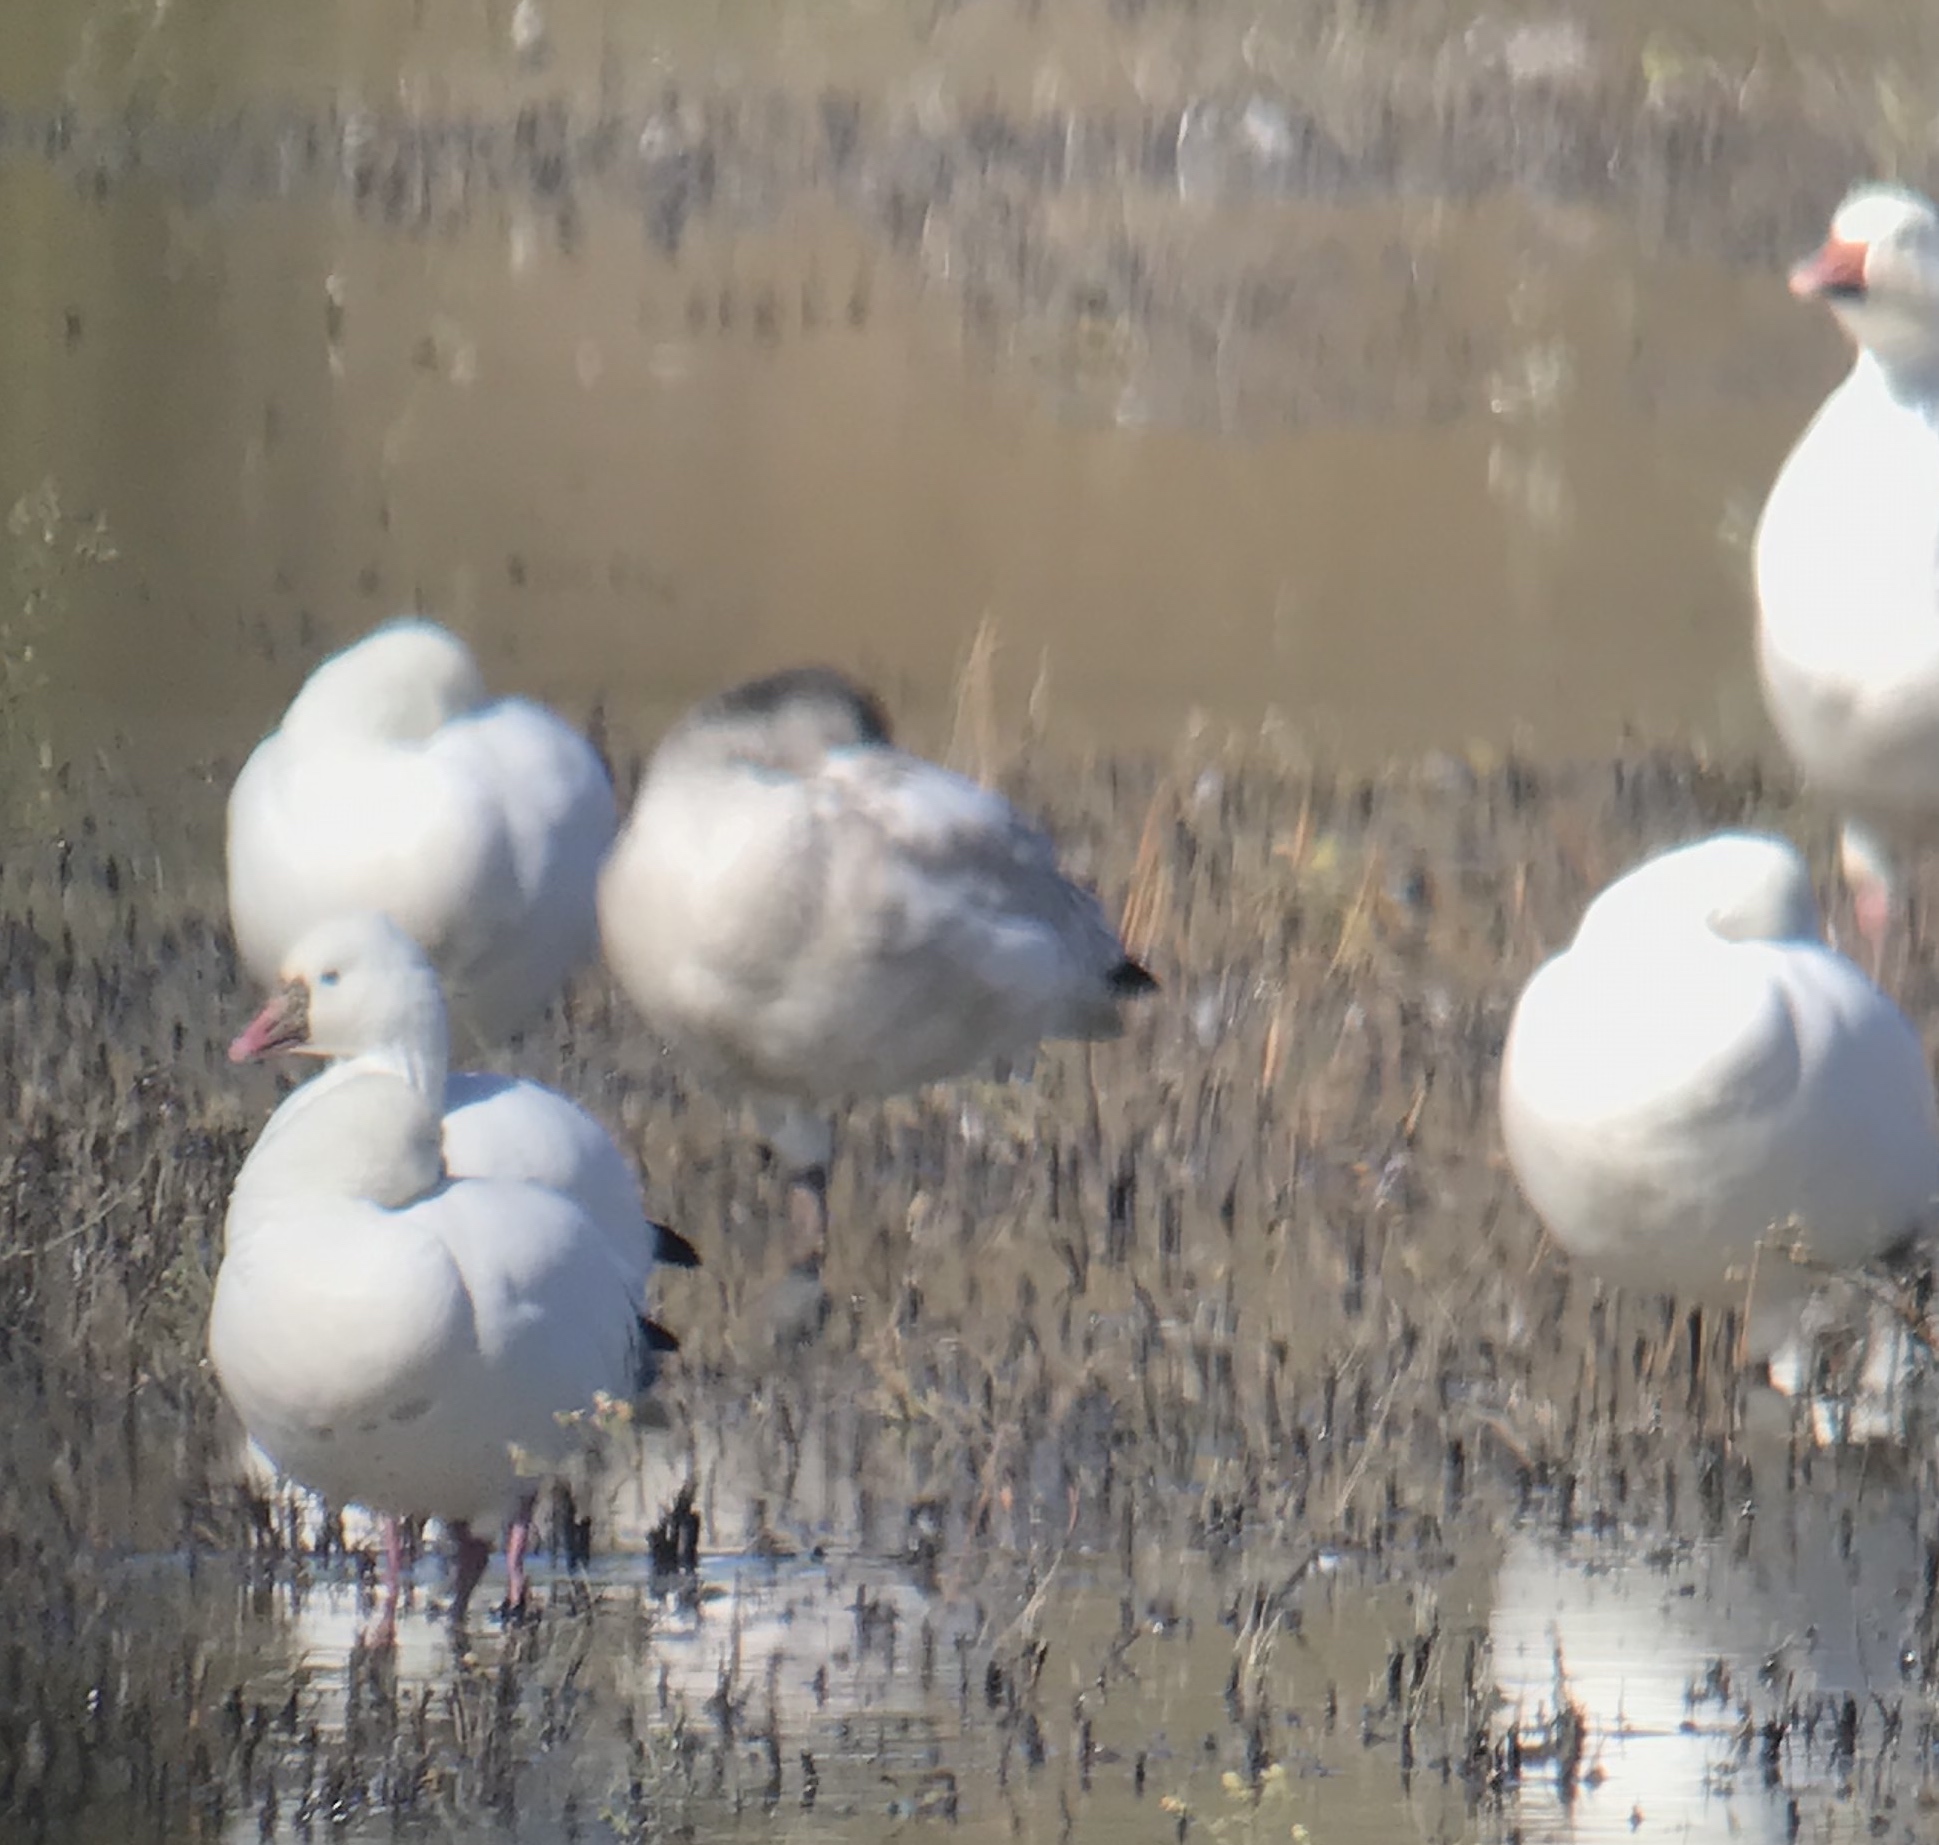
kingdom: Animalia
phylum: Chordata
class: Aves
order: Anseriformes
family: Anatidae
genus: Anser
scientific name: Anser rossii
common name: Ross's goose
